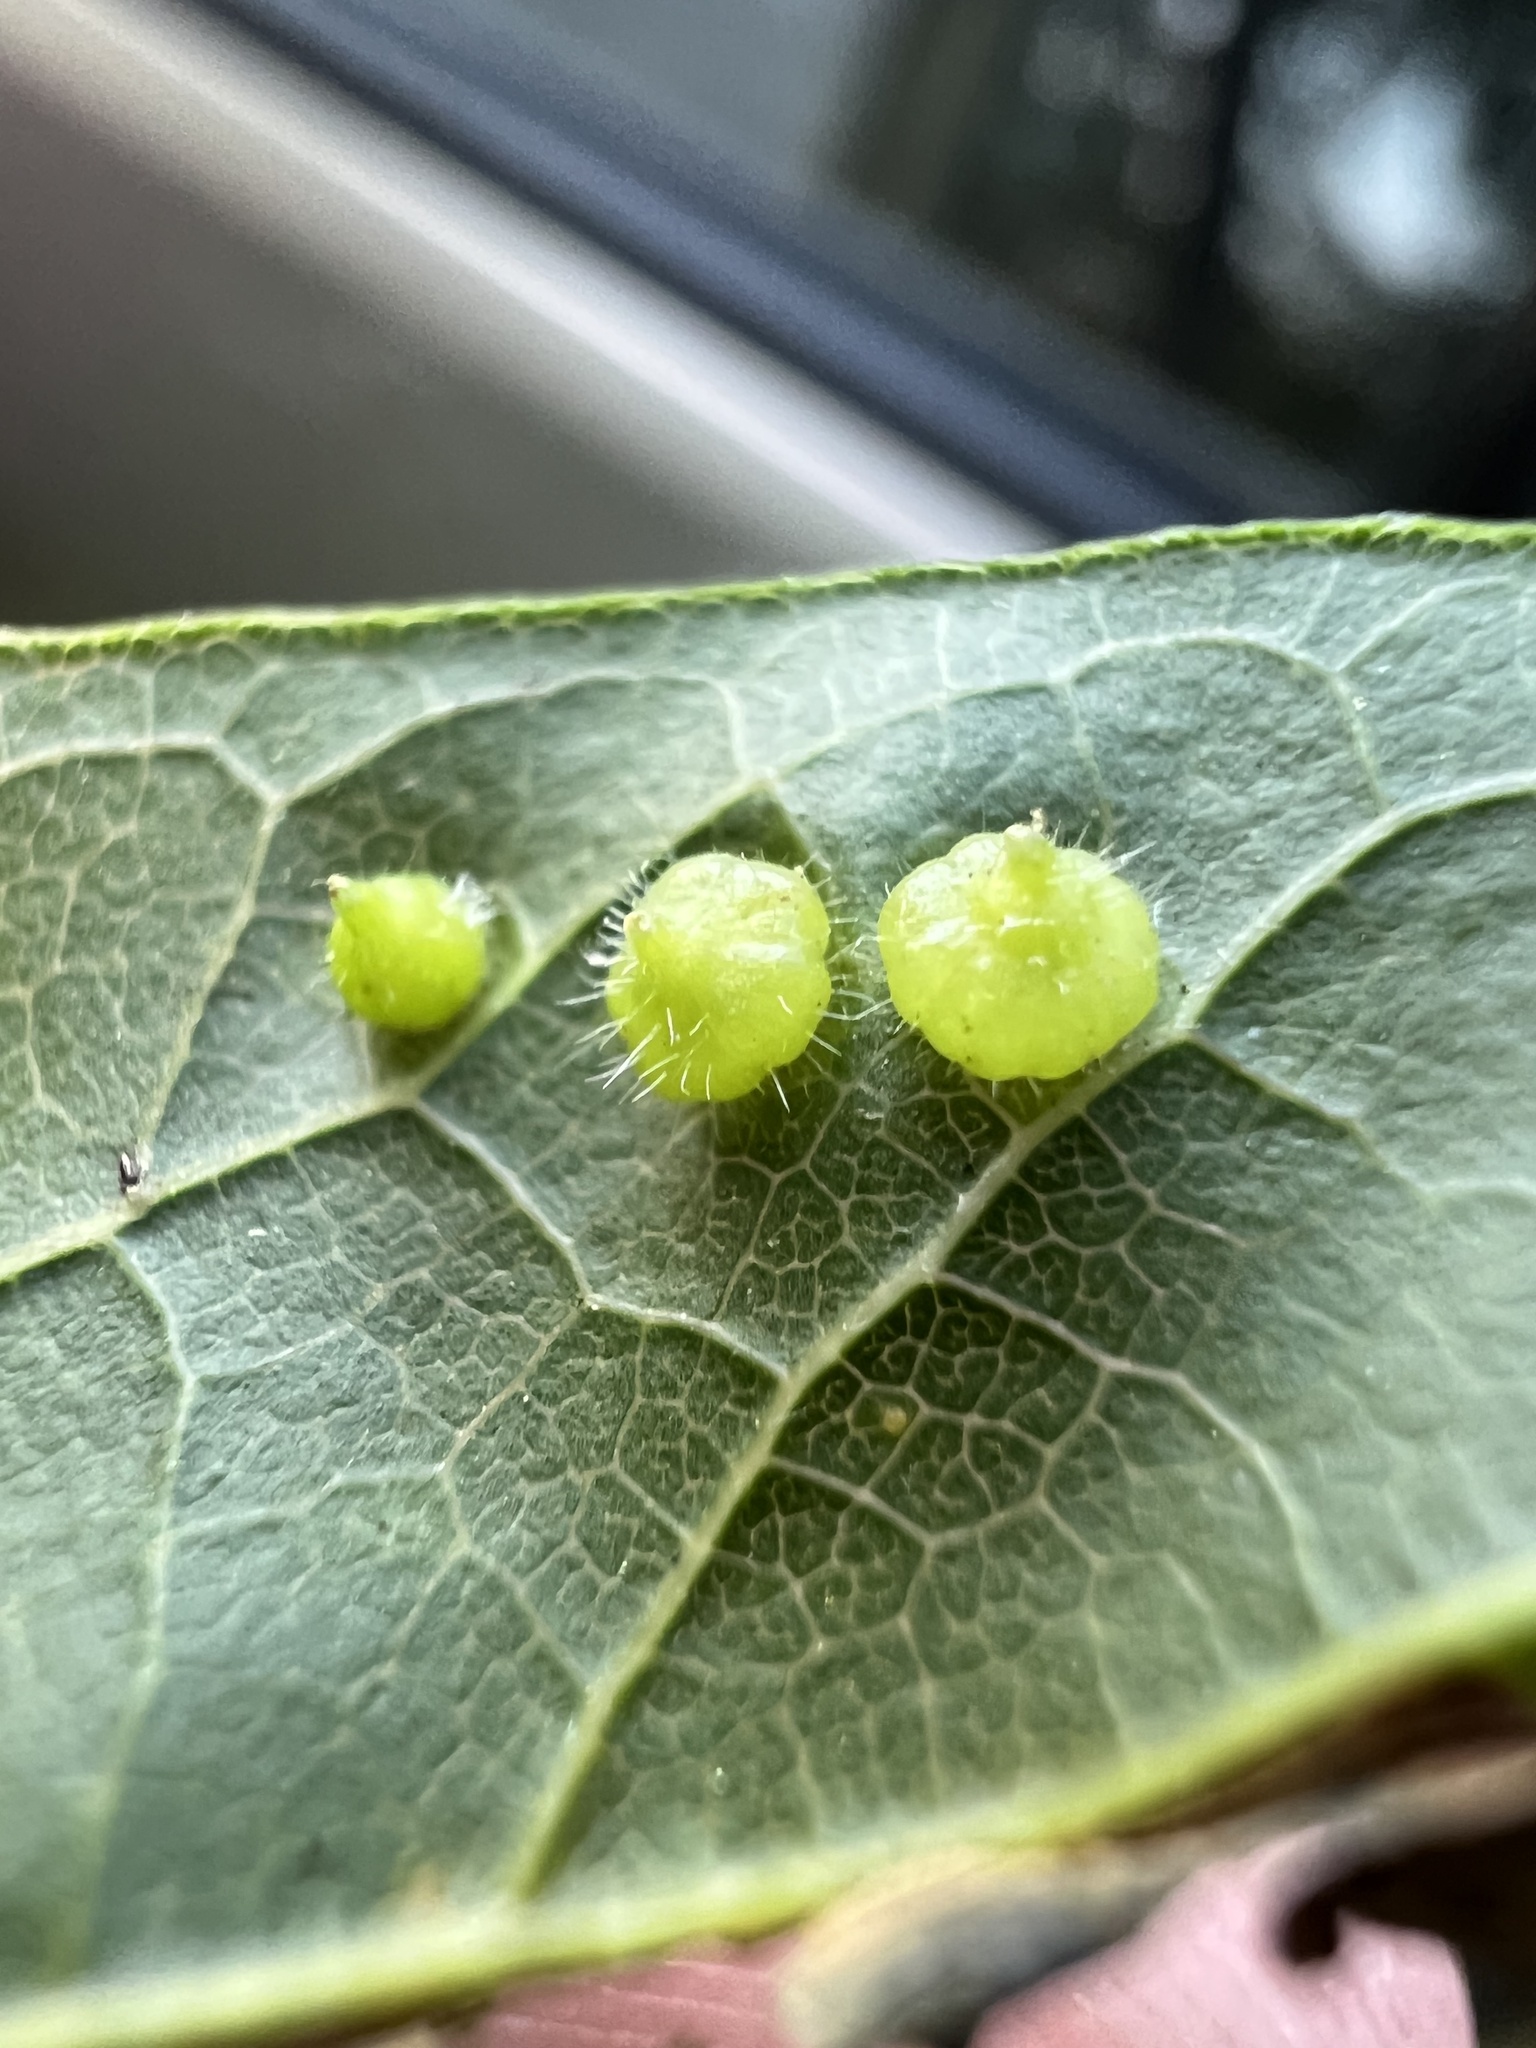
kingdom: Animalia
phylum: Arthropoda
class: Insecta
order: Diptera
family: Cecidomyiidae
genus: Celticecis
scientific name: Celticecis capsularis
